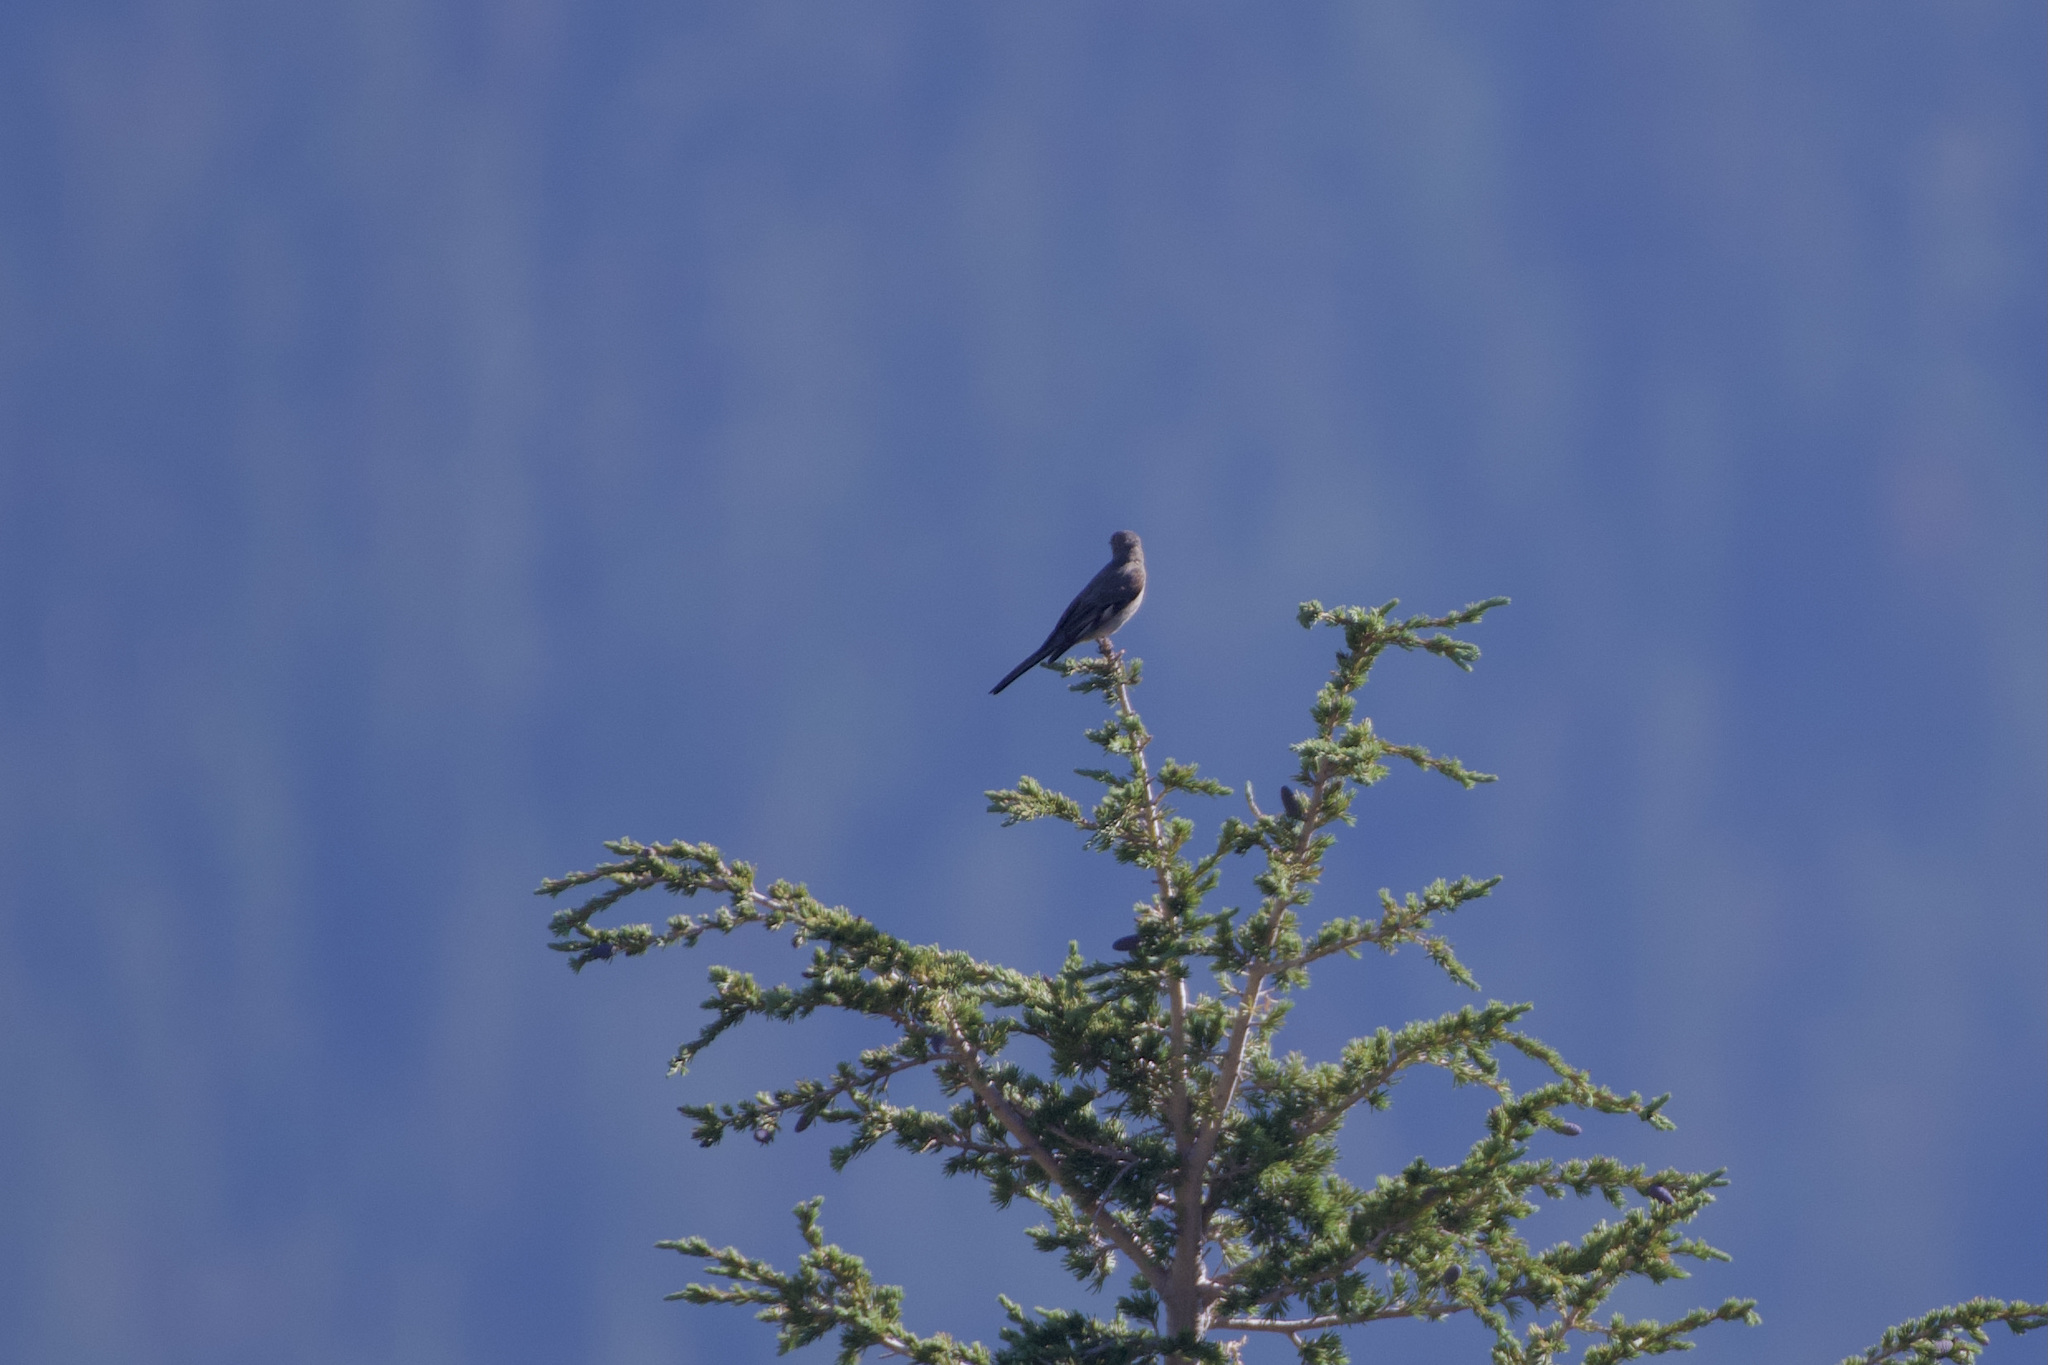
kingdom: Animalia
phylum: Chordata
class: Aves
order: Passeriformes
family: Turdidae
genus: Myadestes
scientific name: Myadestes townsendi
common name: Townsend's solitaire
